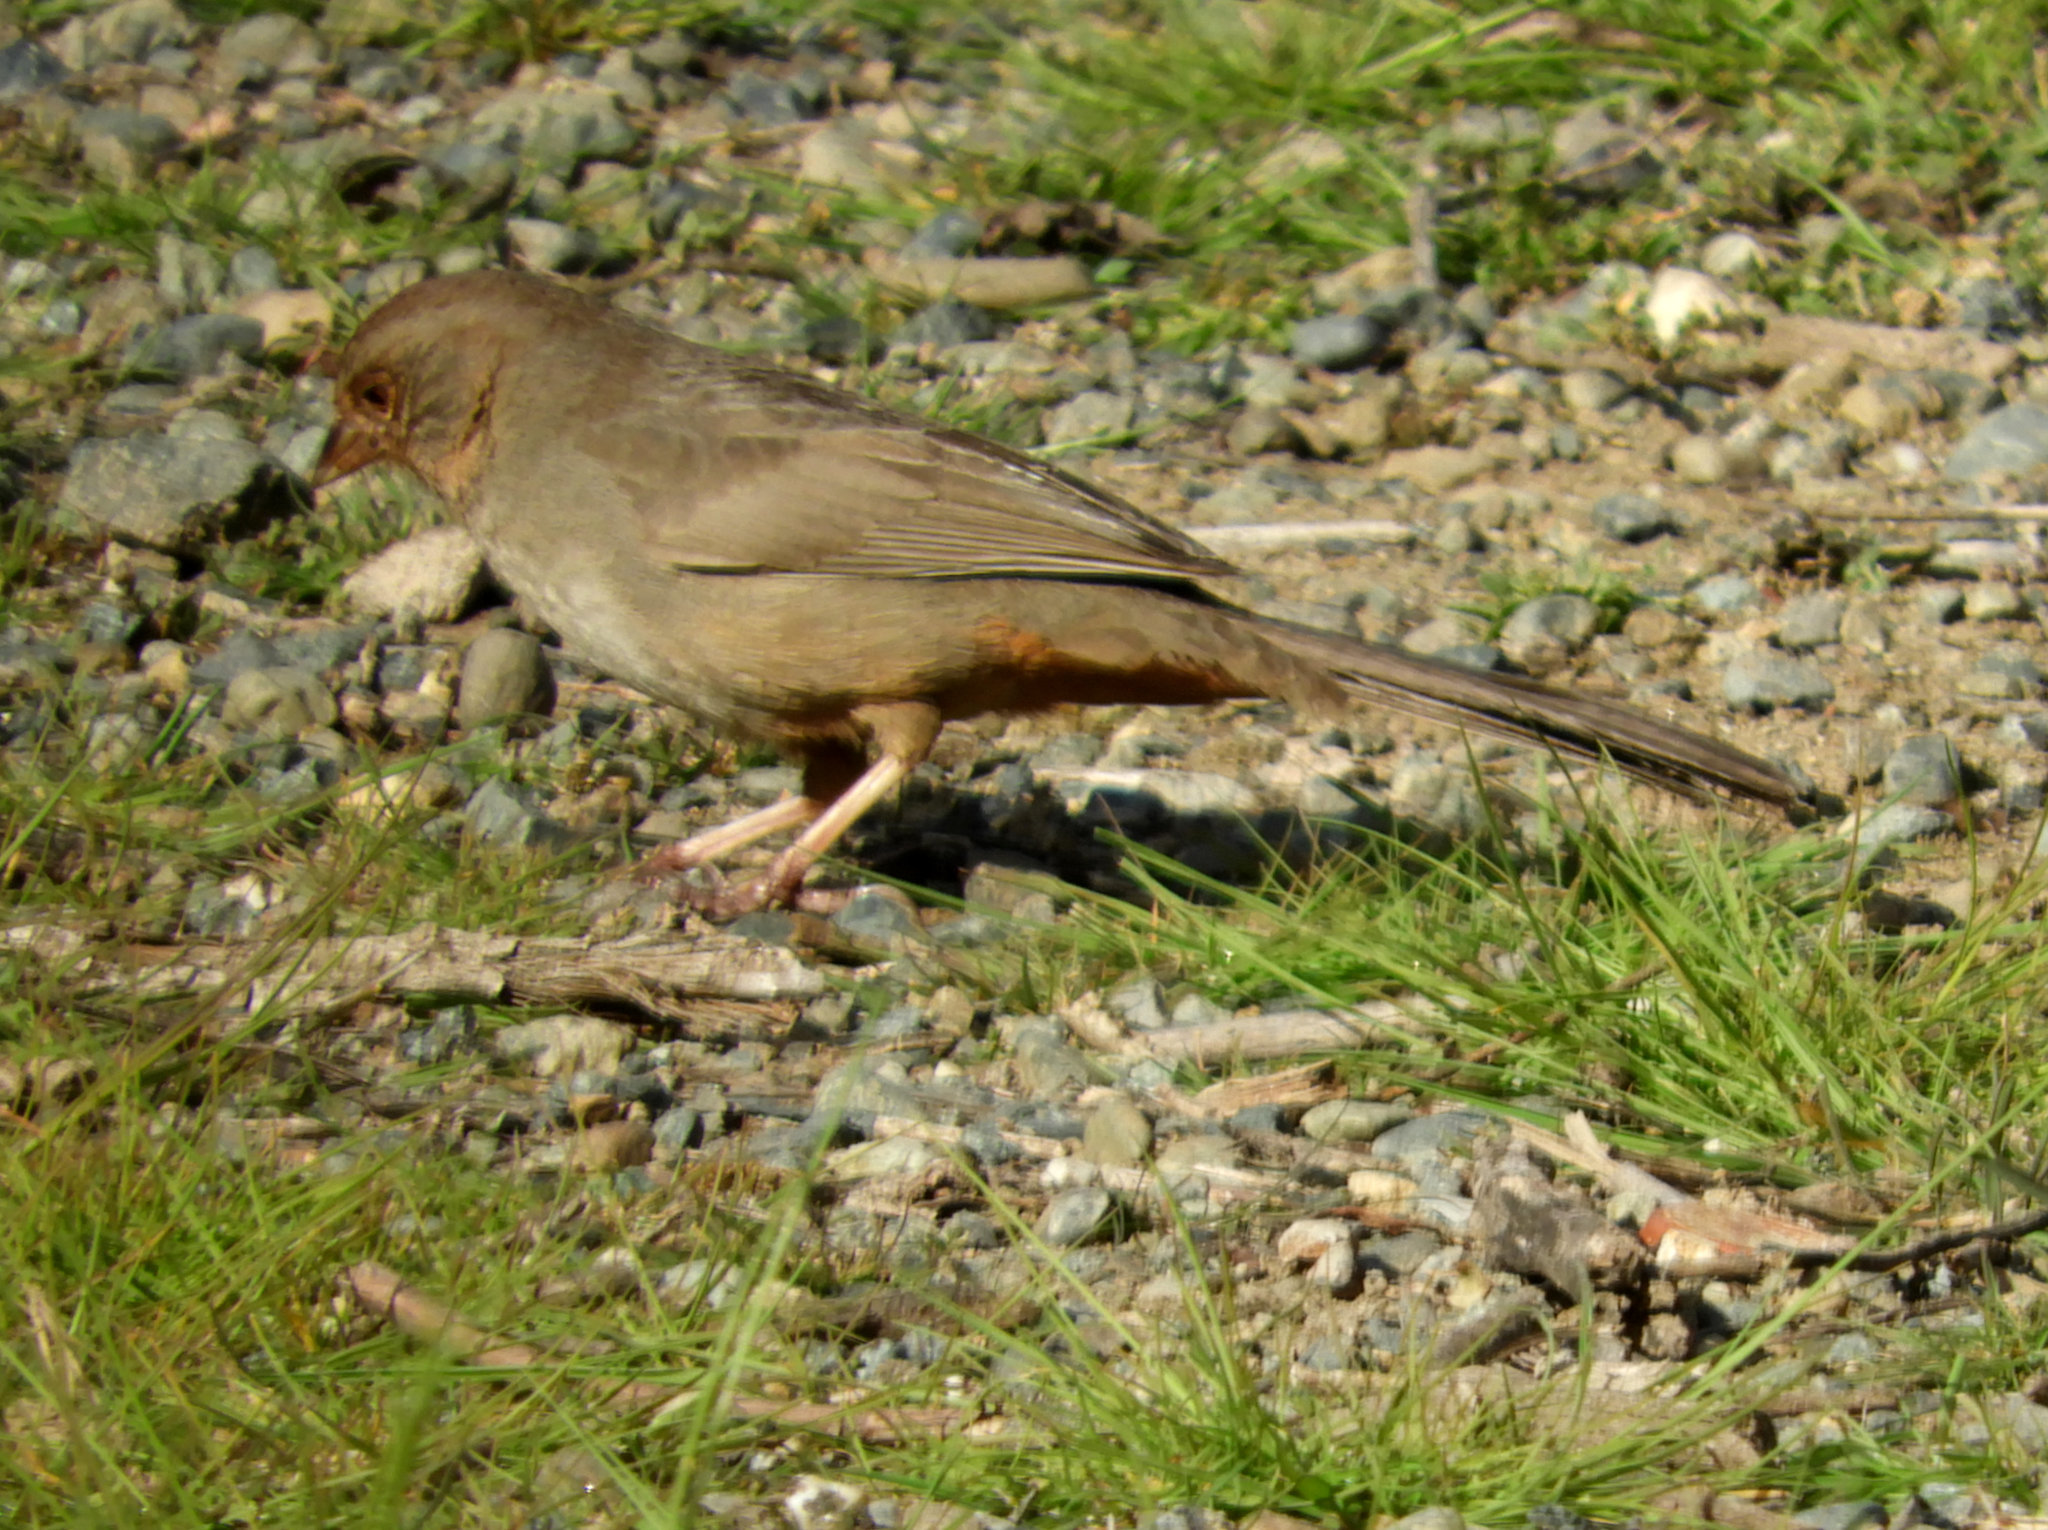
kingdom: Animalia
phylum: Chordata
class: Aves
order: Passeriformes
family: Passerellidae
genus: Melozone
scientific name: Melozone crissalis
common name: California towhee
